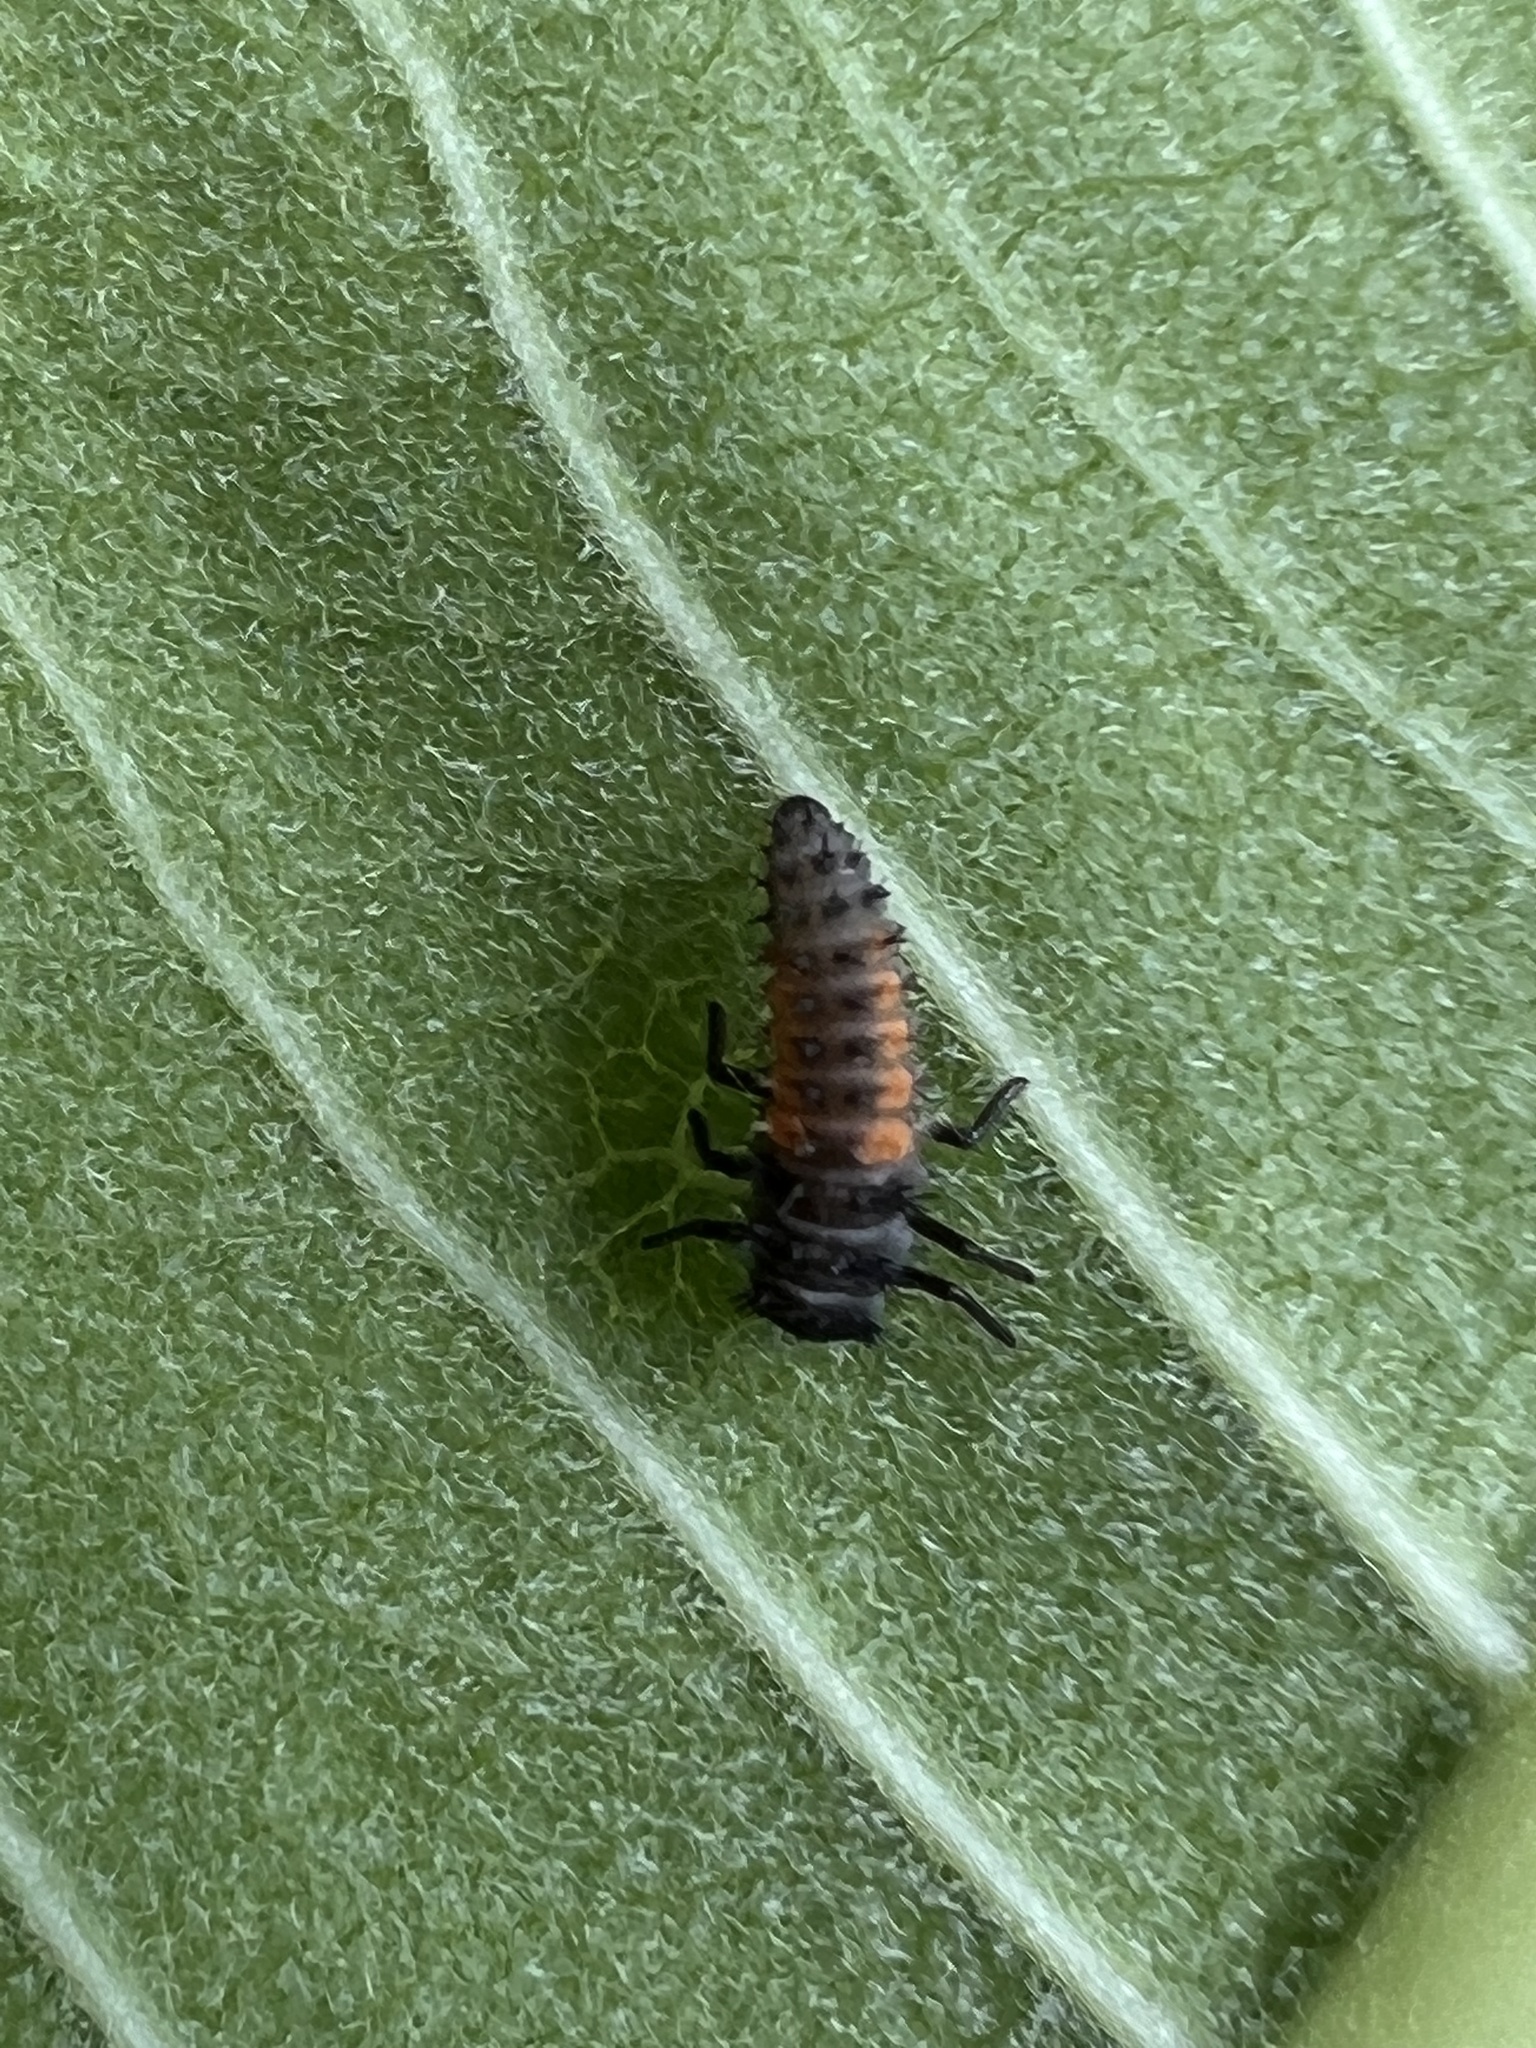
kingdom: Animalia
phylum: Arthropoda
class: Insecta
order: Coleoptera
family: Coccinellidae
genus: Harmonia
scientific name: Harmonia axyridis
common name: Harlequin ladybird
